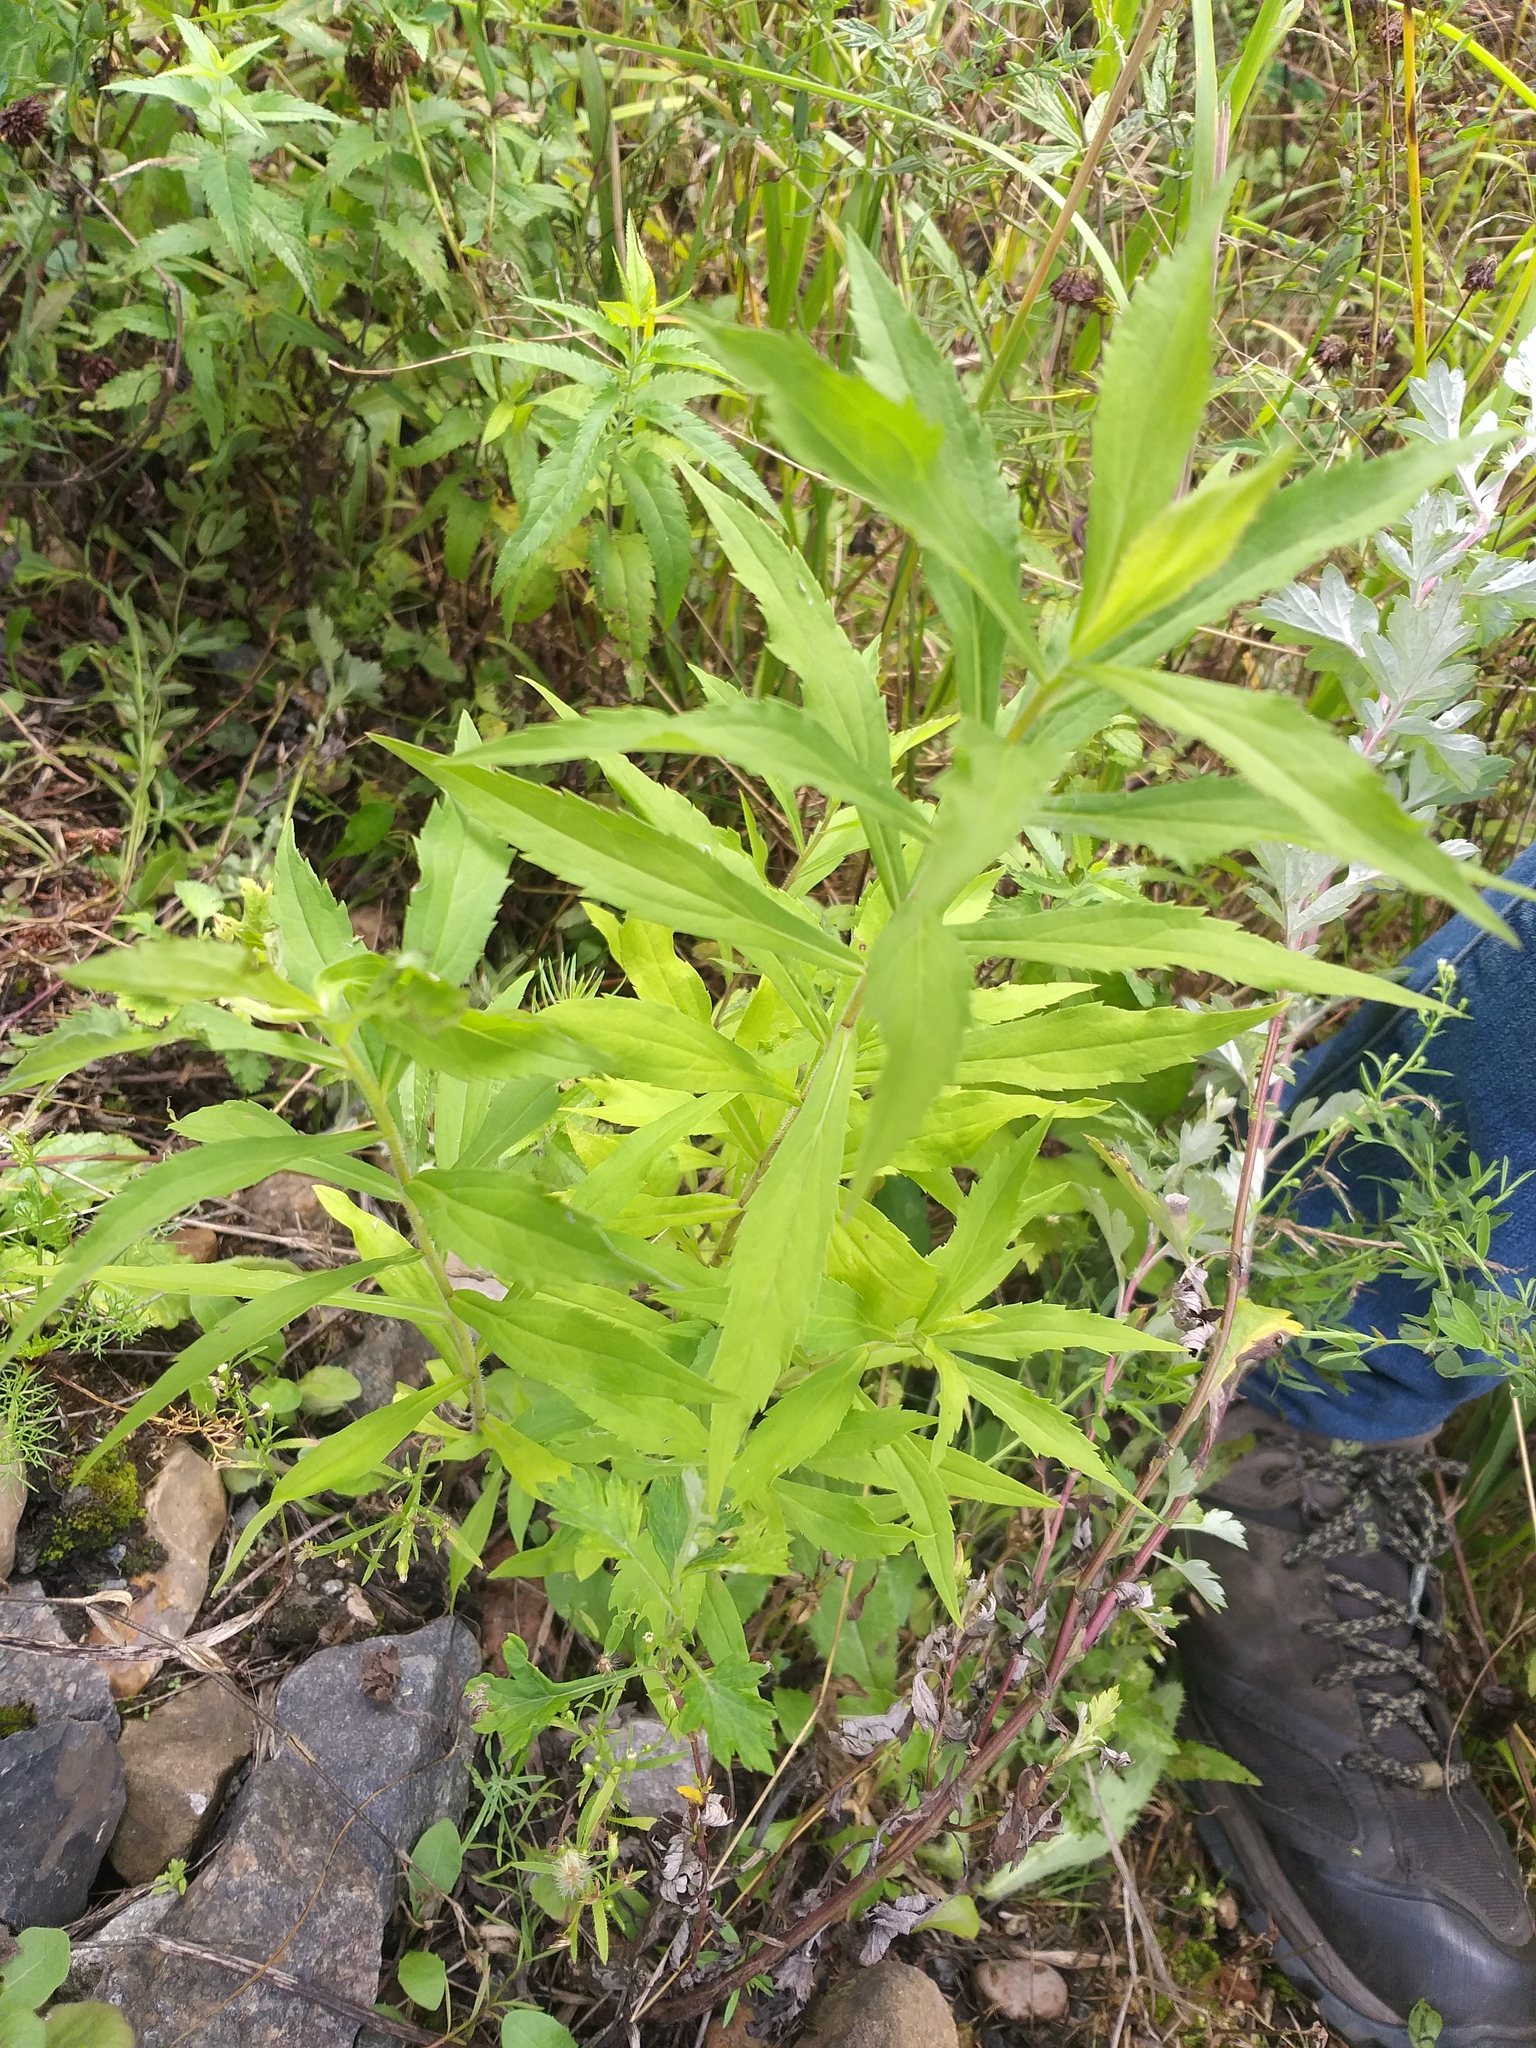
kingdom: Plantae
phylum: Tracheophyta
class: Magnoliopsida
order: Asterales
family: Asteraceae
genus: Solidago
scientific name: Solidago canadensis
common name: Canada goldenrod
